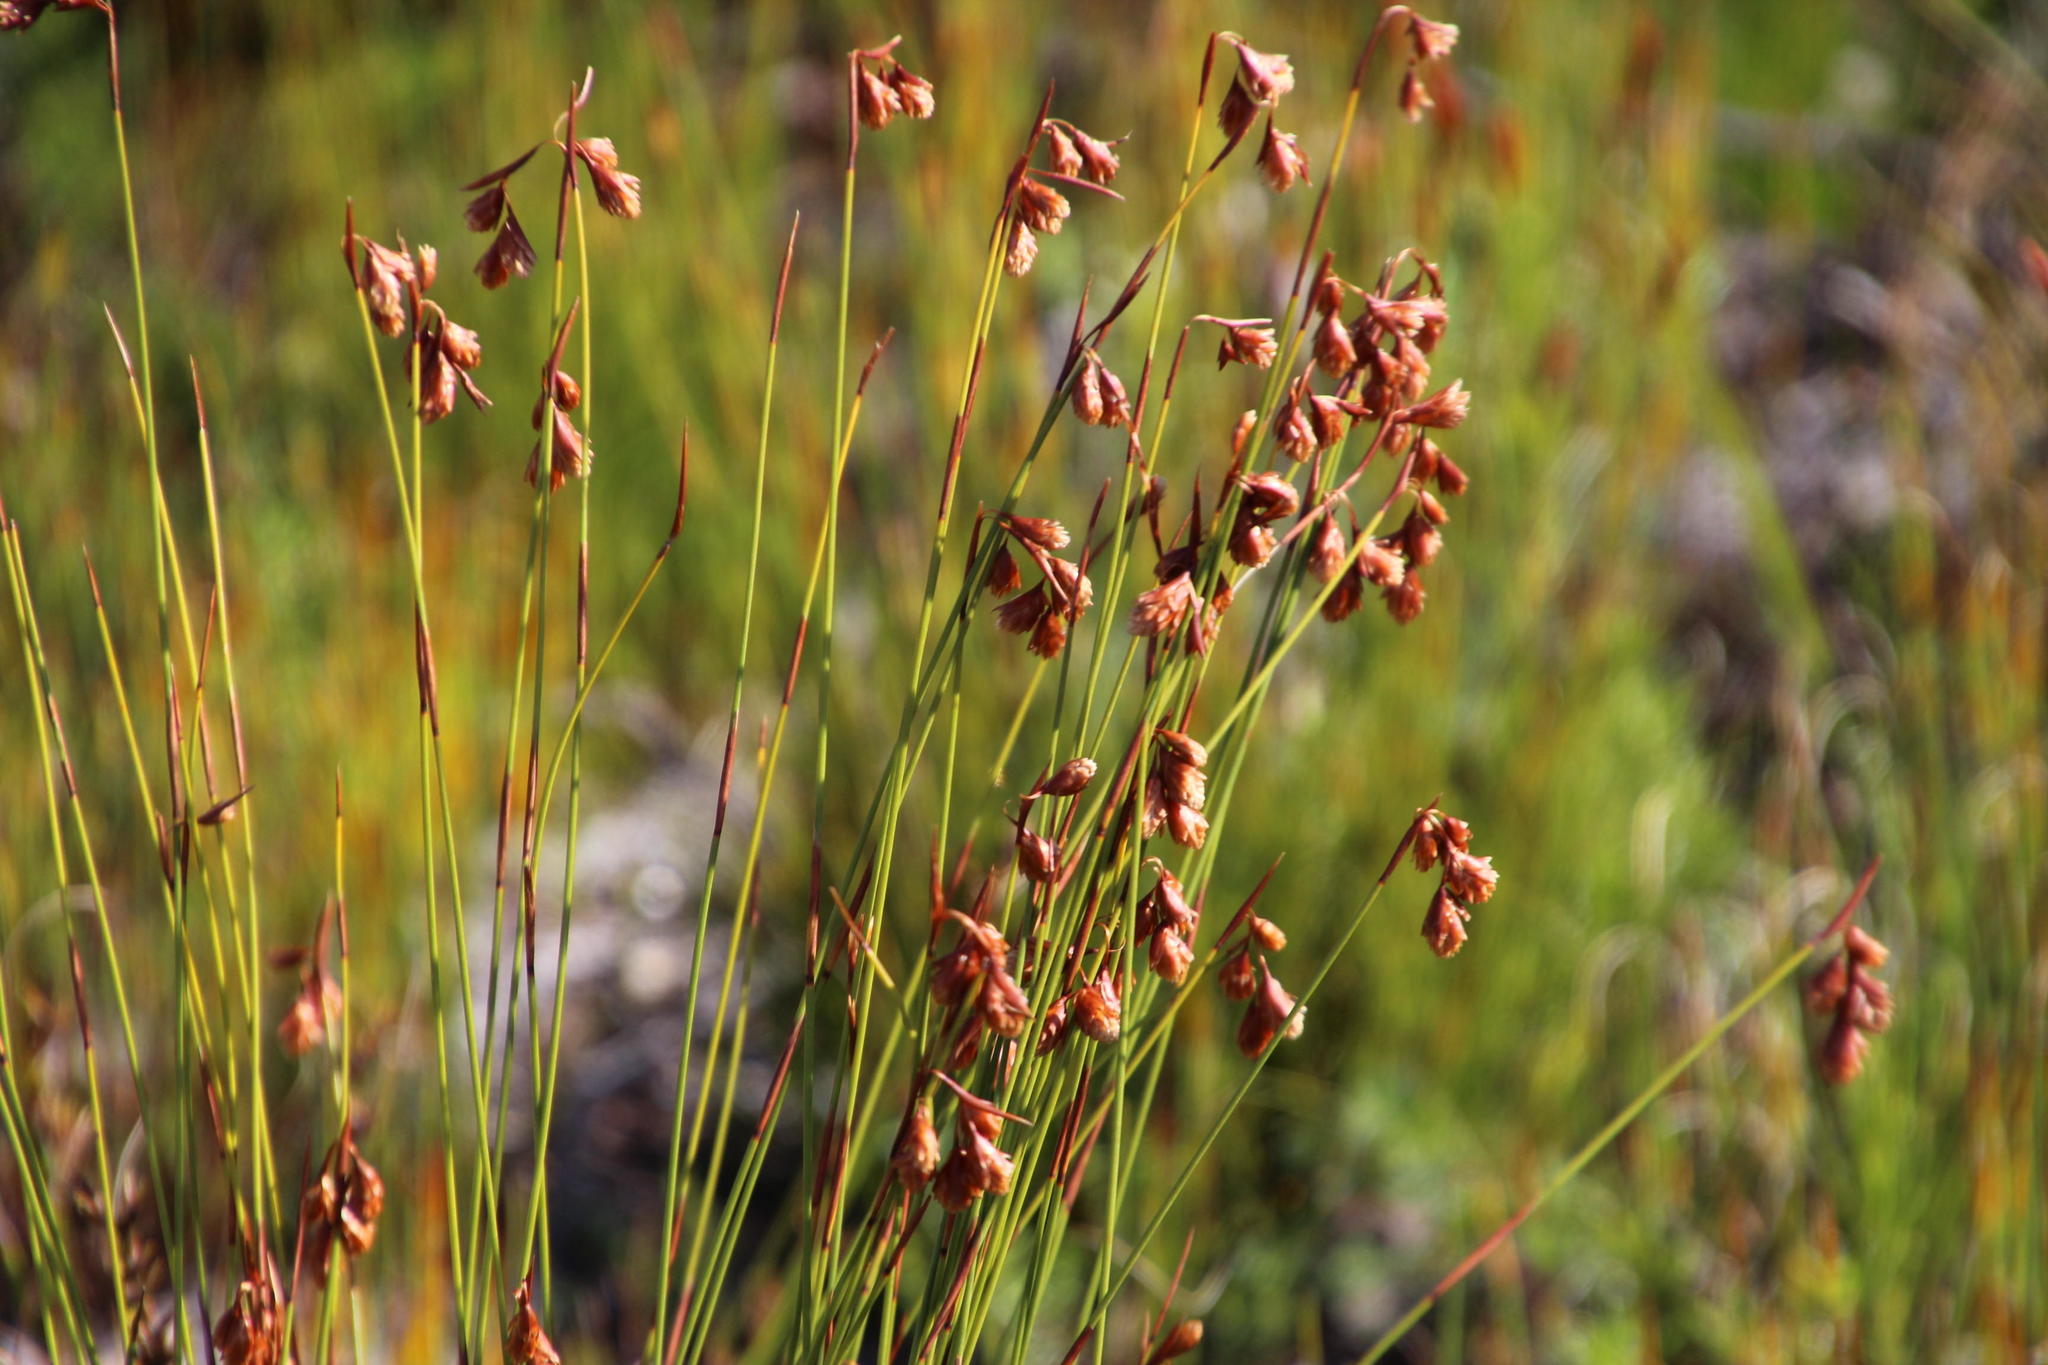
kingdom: Plantae
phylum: Tracheophyta
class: Liliopsida
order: Poales
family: Restionaceae
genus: Staberoha
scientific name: Staberoha banksii
